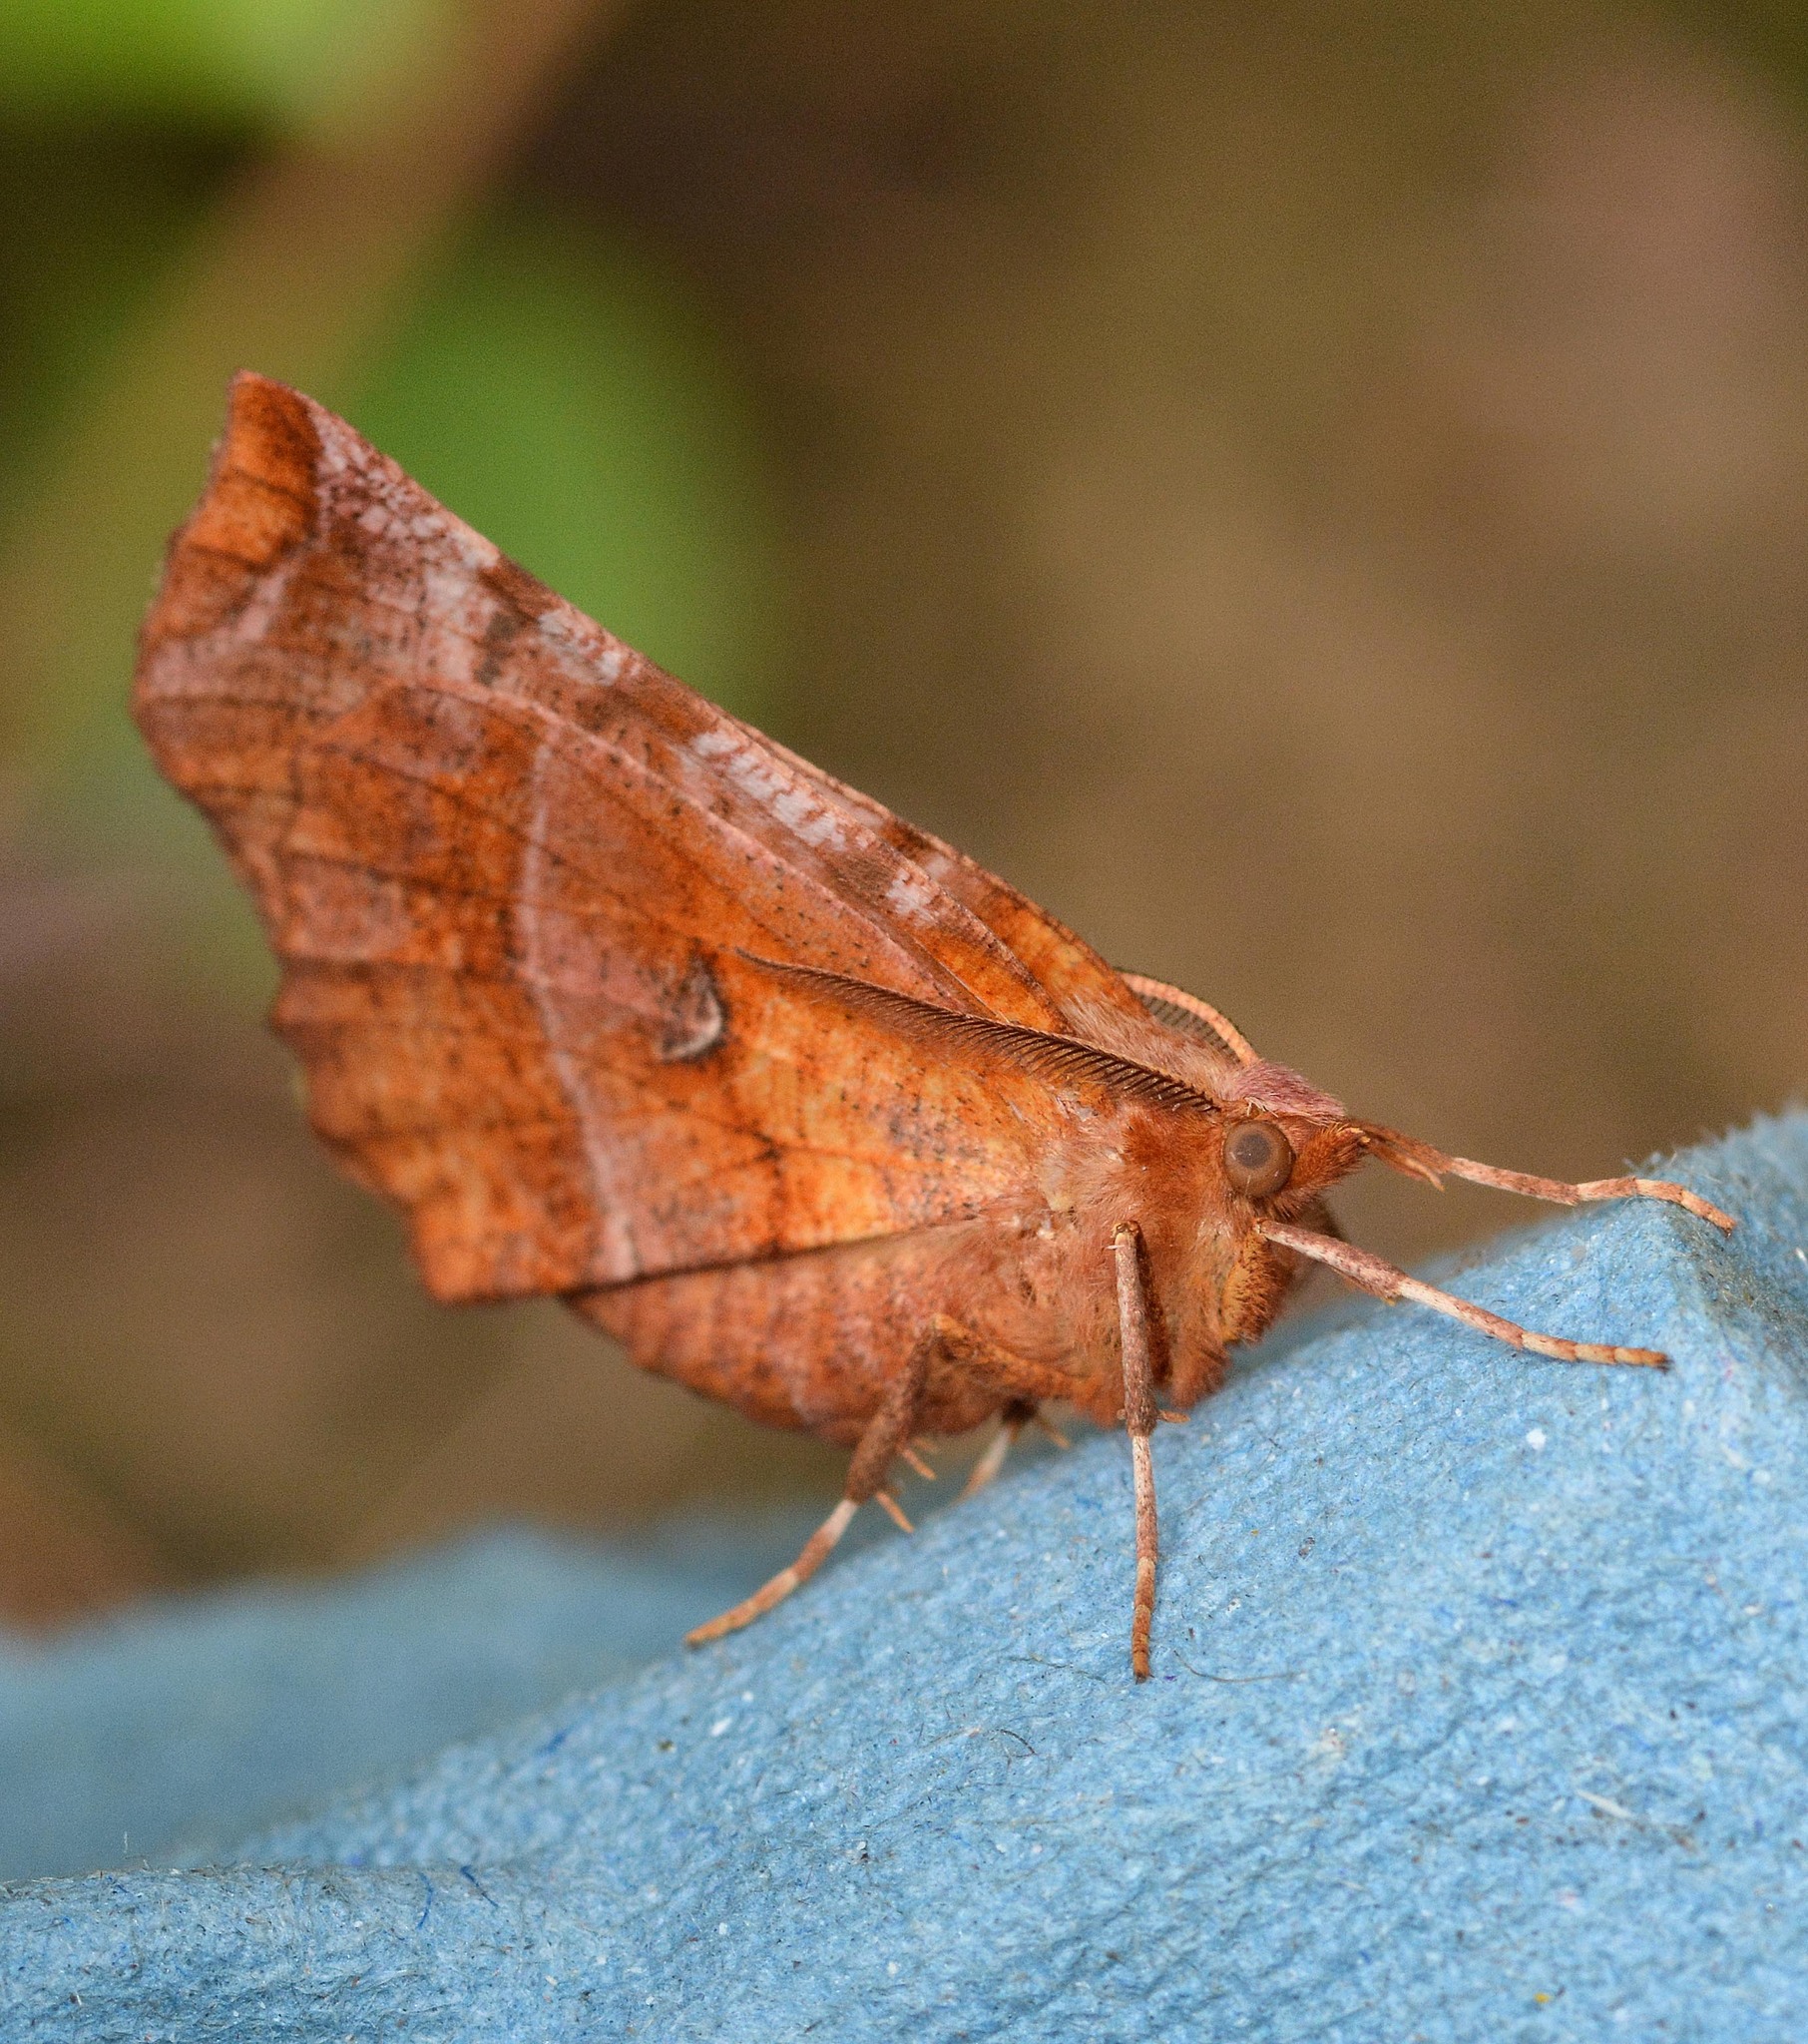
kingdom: Animalia
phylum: Arthropoda
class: Insecta
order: Lepidoptera
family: Geometridae
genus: Selenia
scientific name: Selenia dentaria
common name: Early thorn
